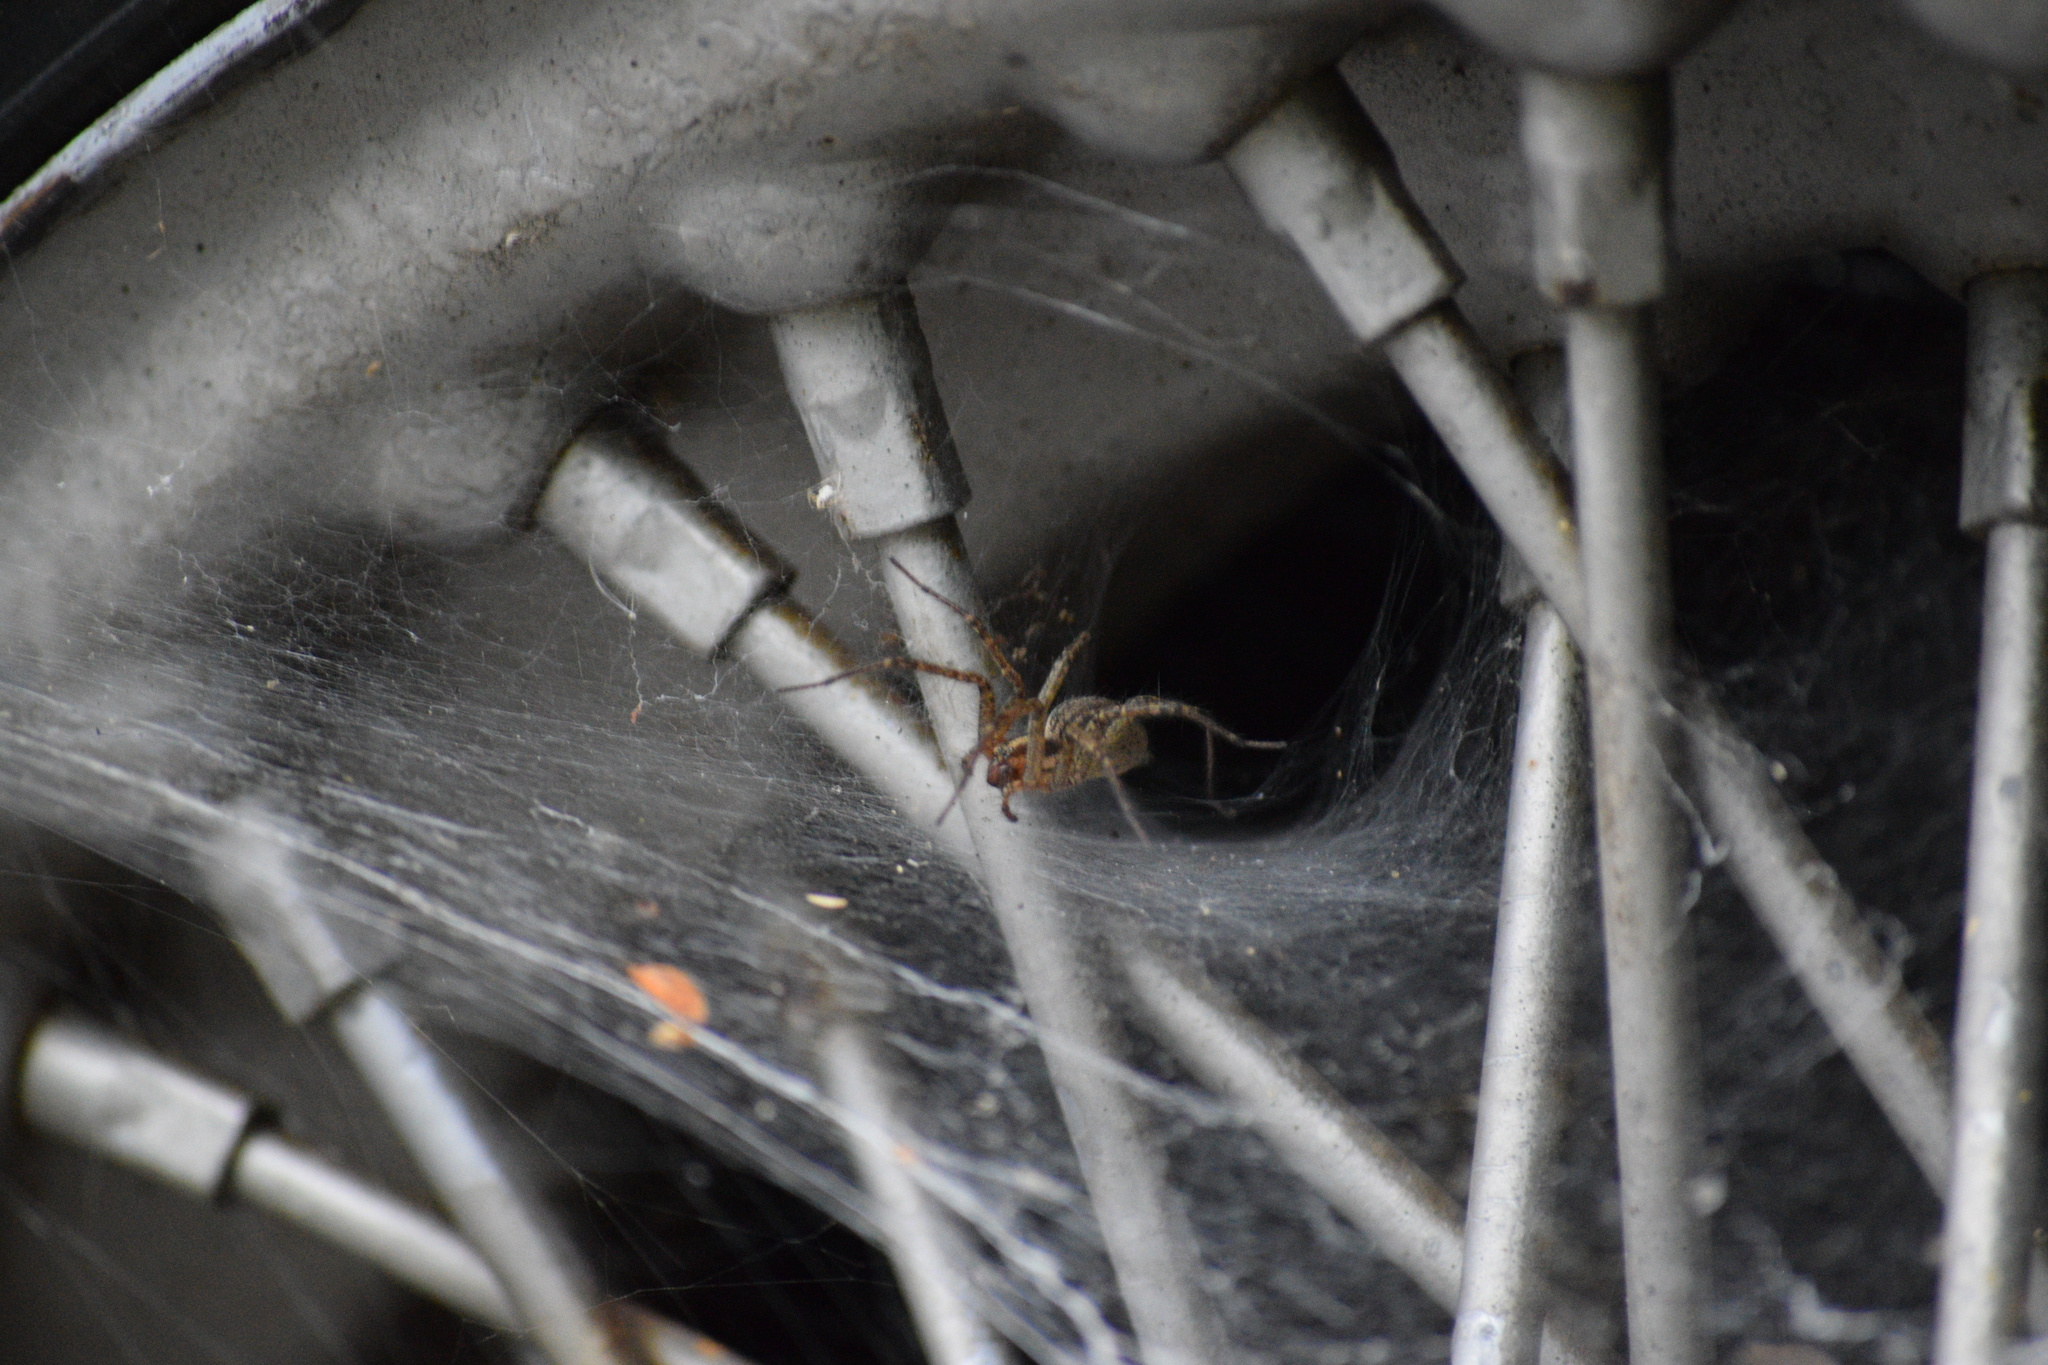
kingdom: Animalia
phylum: Arthropoda
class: Arachnida
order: Araneae
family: Agelenidae
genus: Agelenopsis
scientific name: Agelenopsis
